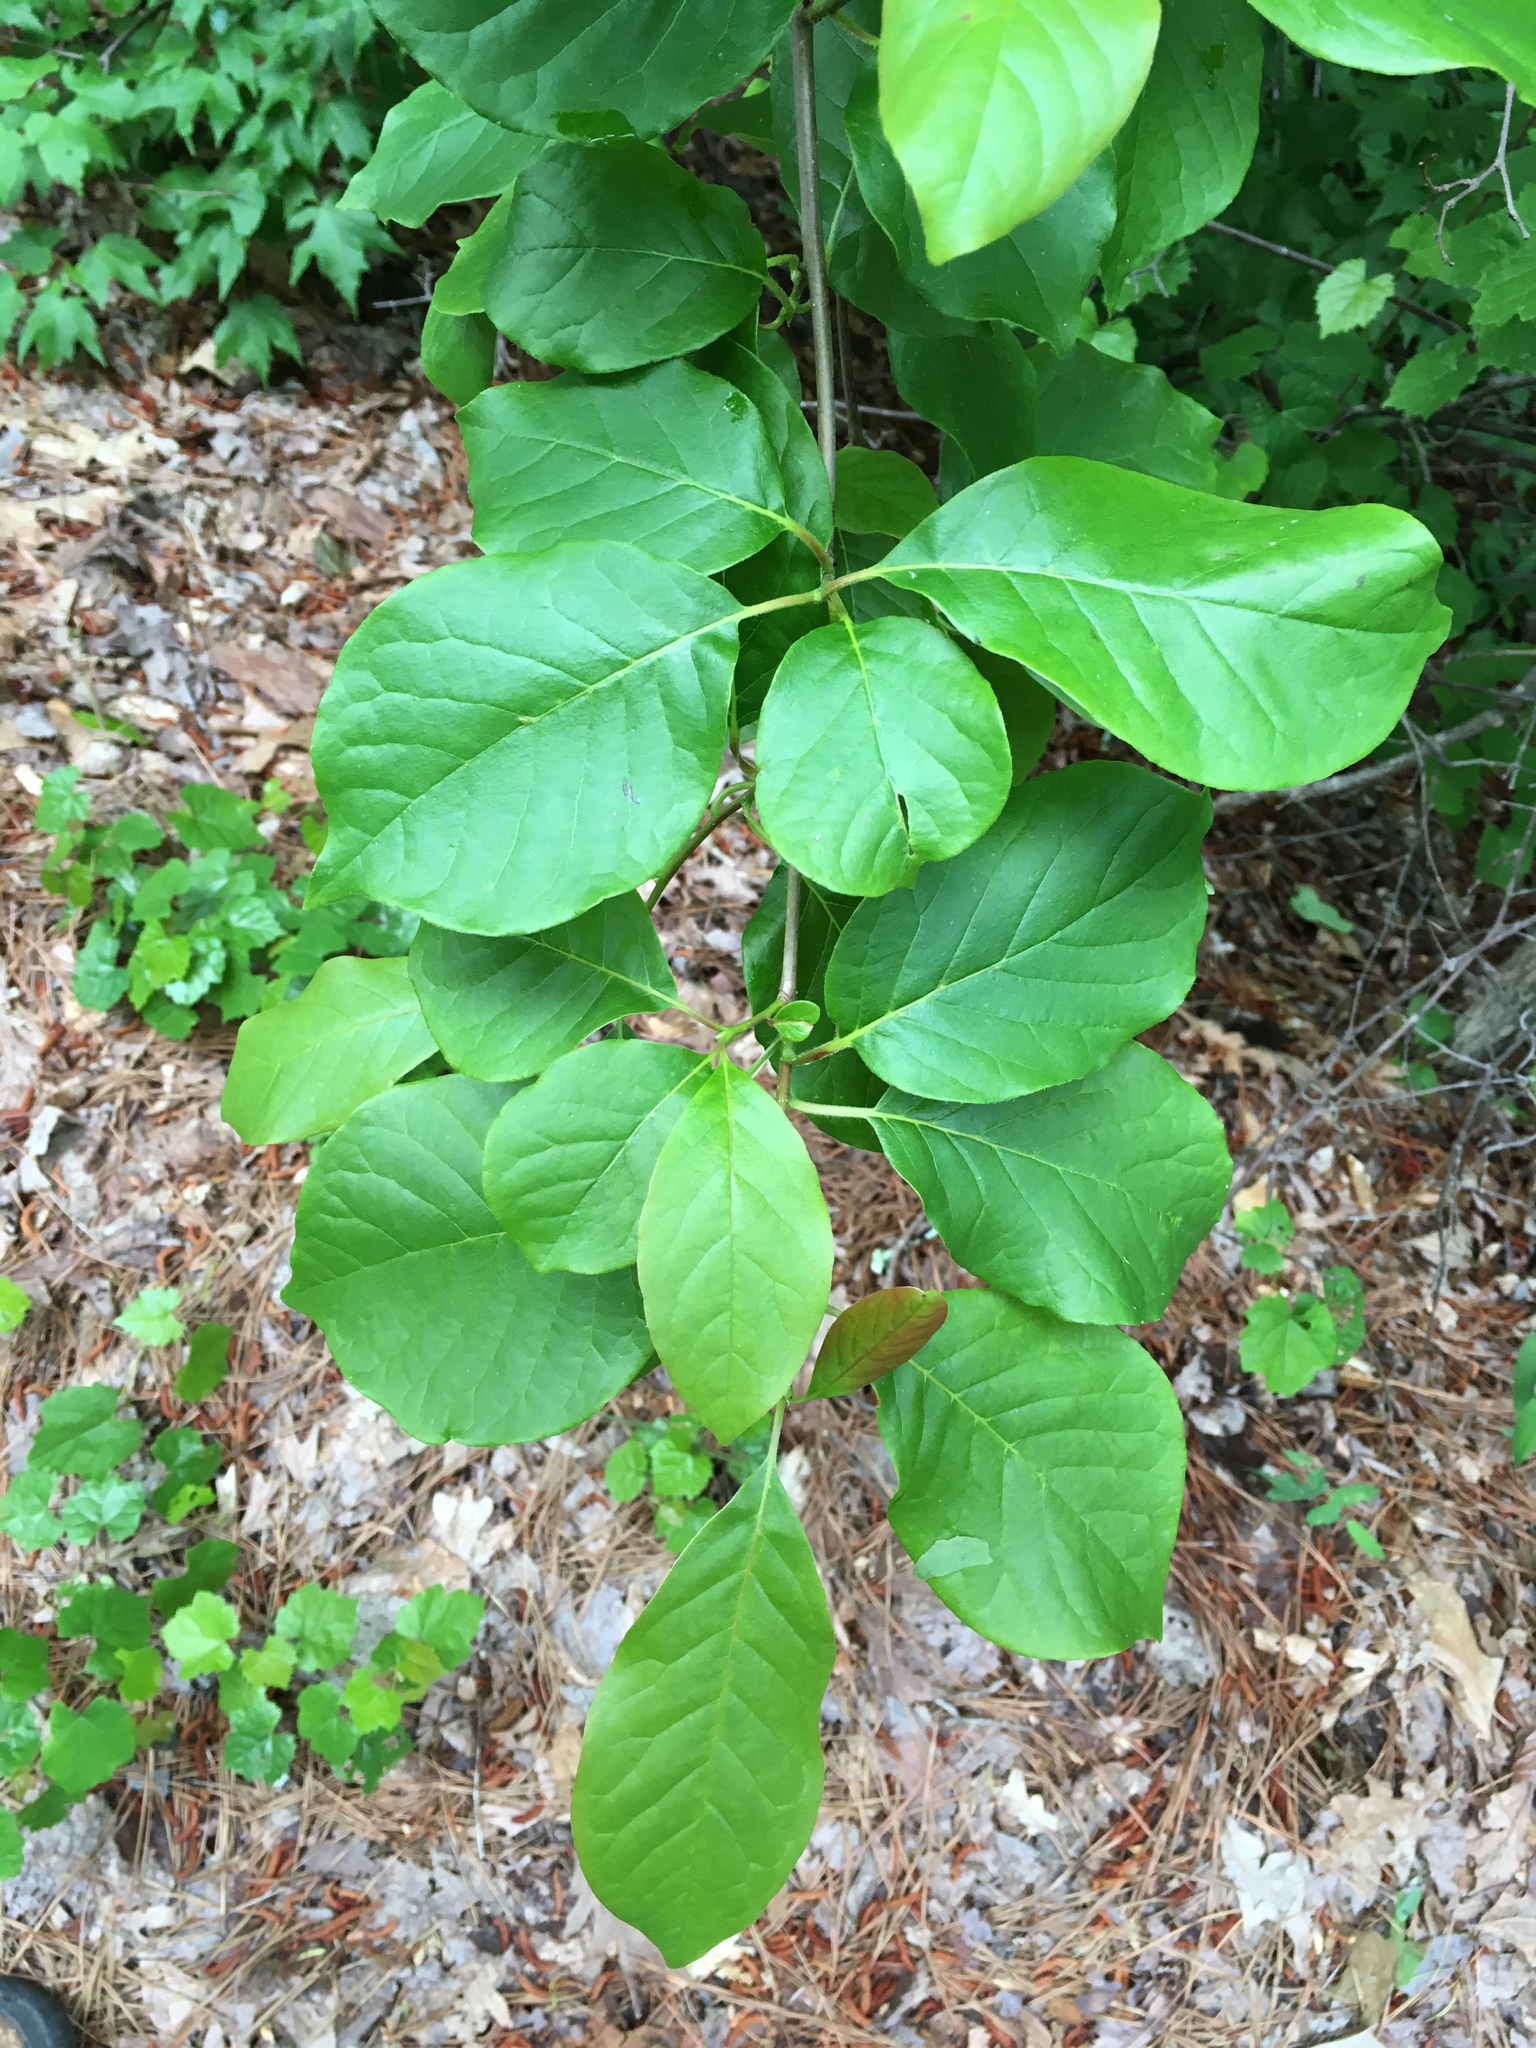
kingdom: Plantae
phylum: Tracheophyta
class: Magnoliopsida
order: Cornales
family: Nyssaceae
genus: Nyssa
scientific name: Nyssa sylvatica
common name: Black tupelo
